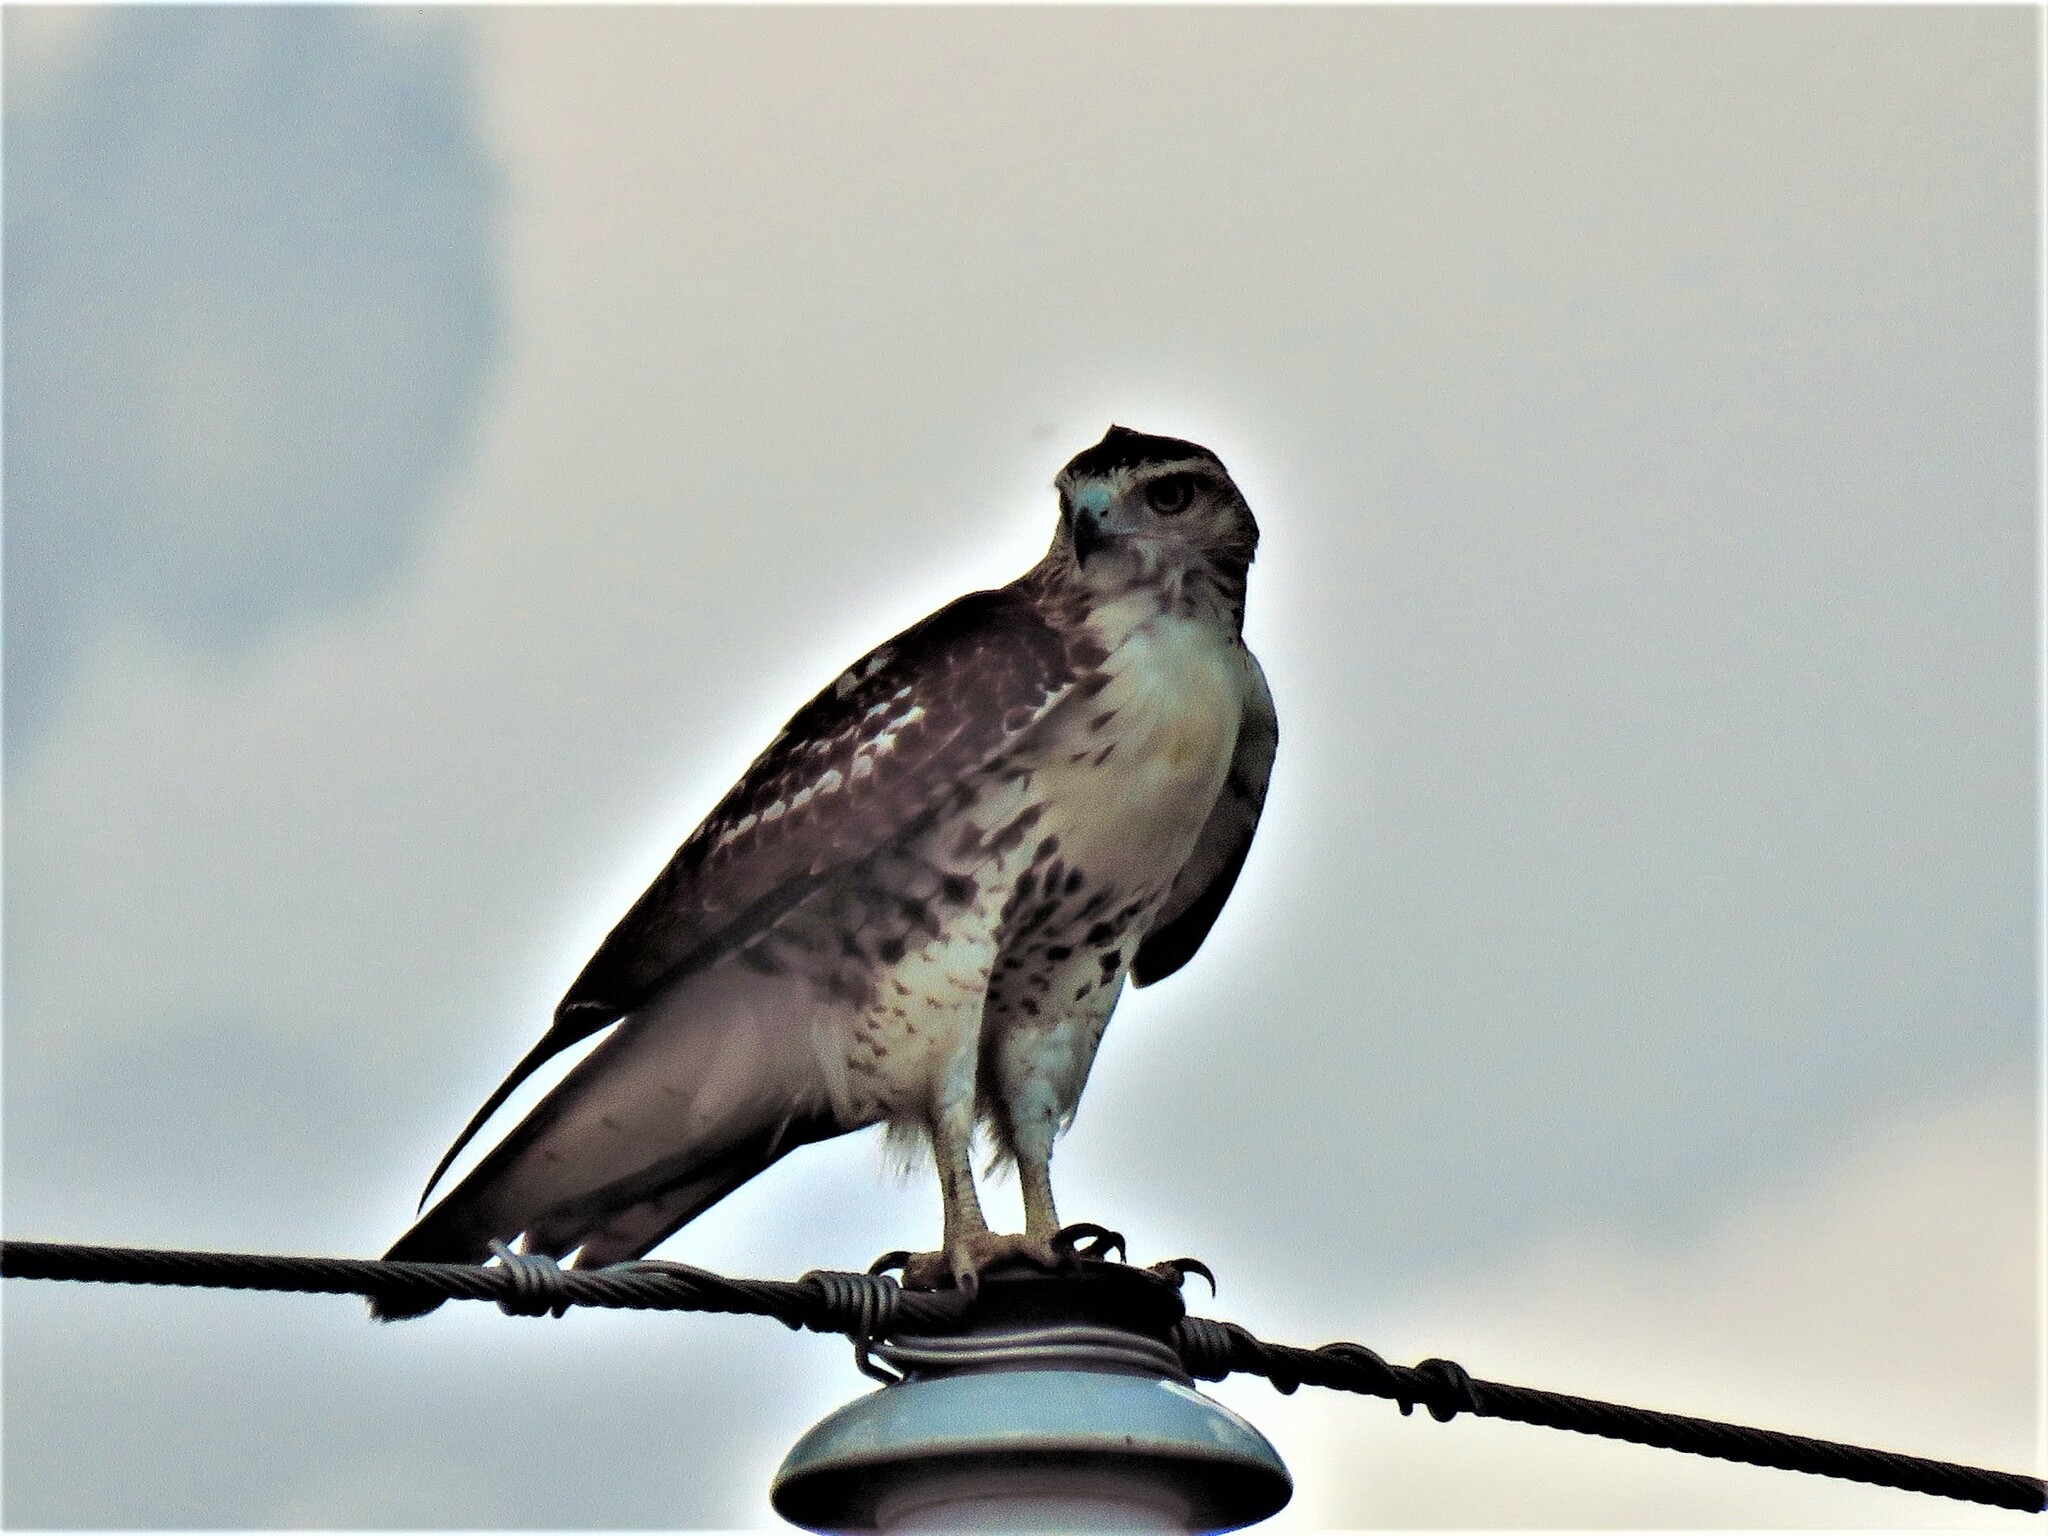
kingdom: Animalia
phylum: Chordata
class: Aves
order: Accipitriformes
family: Accipitridae
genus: Buteo
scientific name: Buteo jamaicensis
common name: Red-tailed hawk
